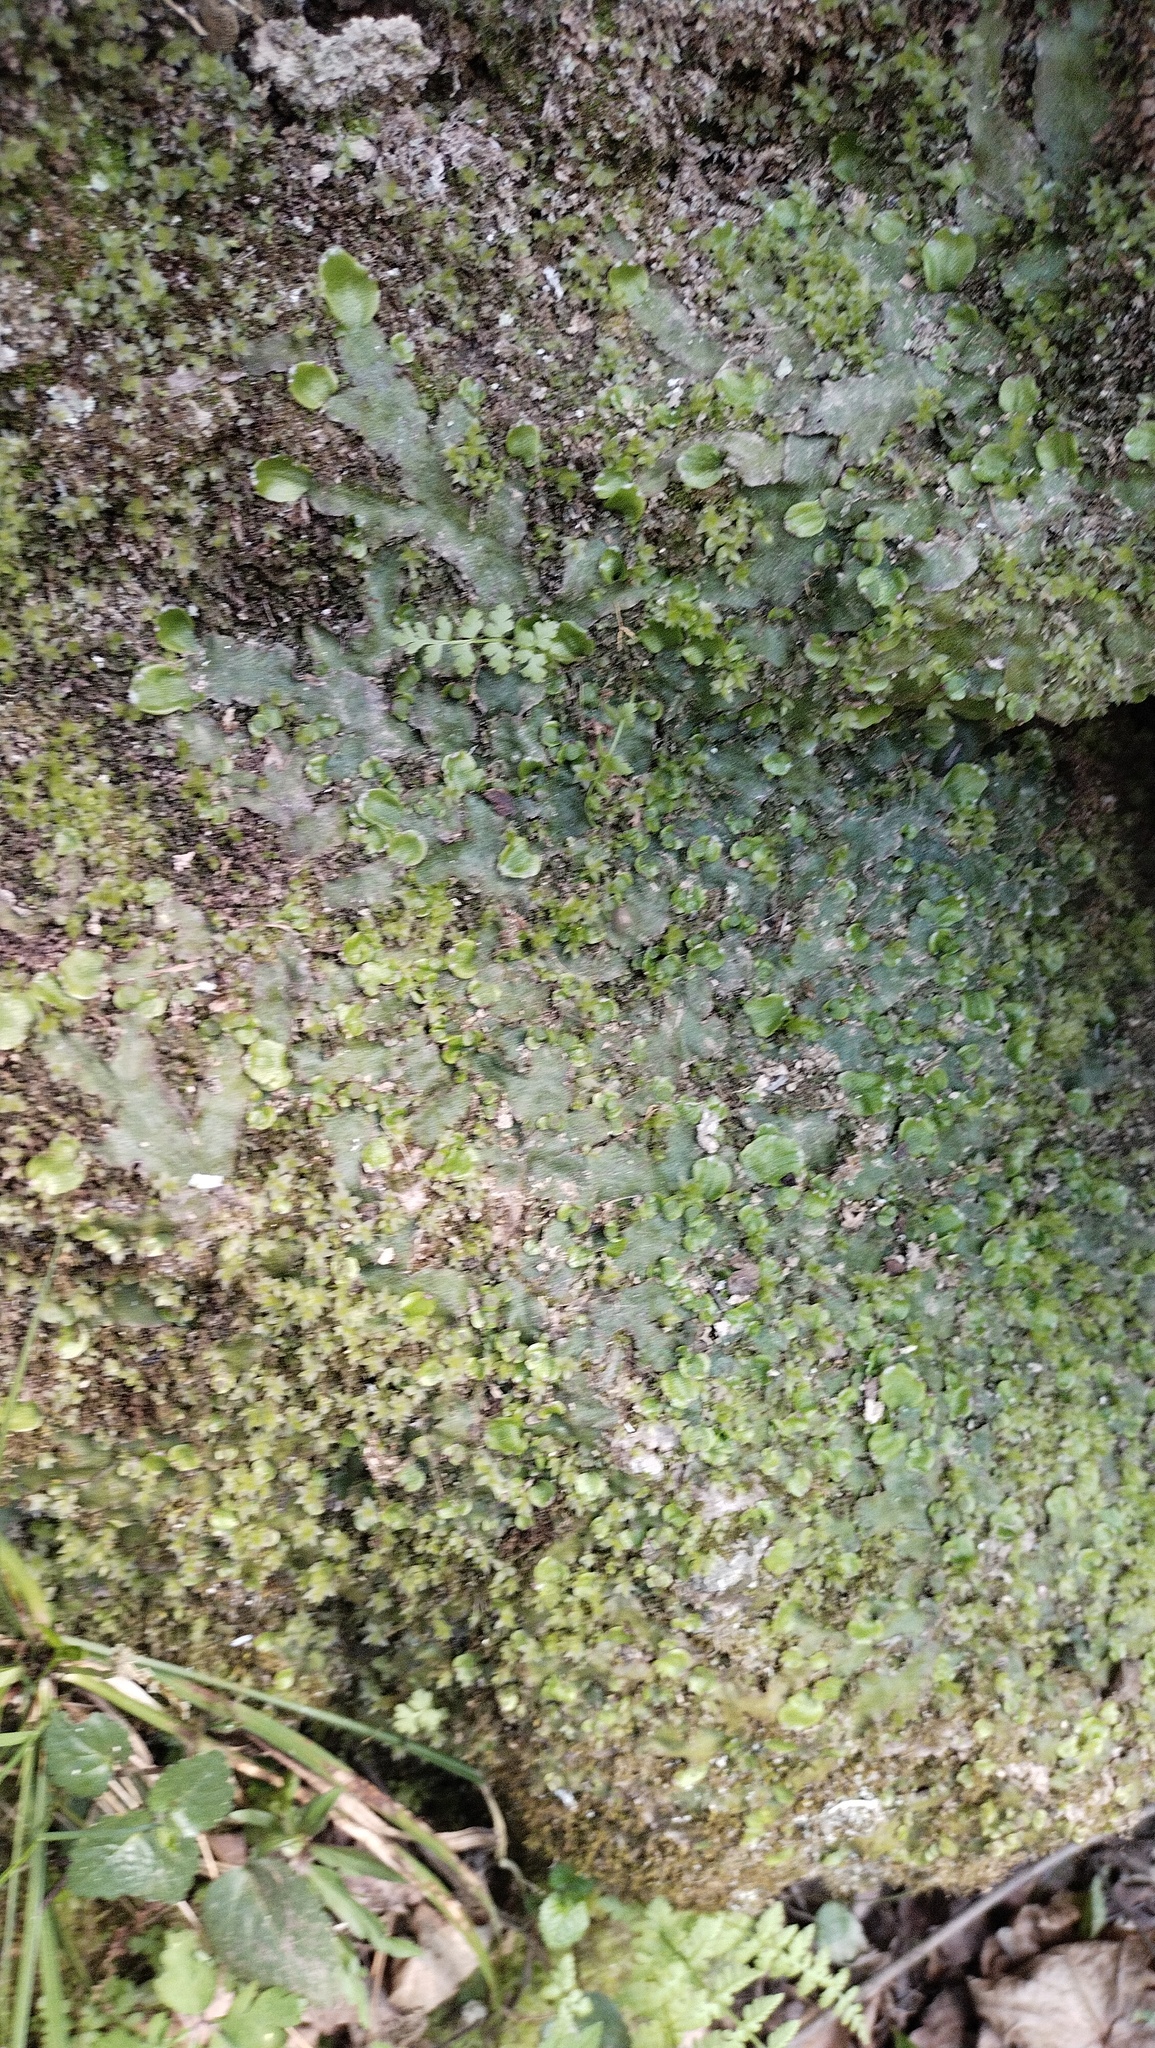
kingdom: Plantae
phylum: Marchantiophyta
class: Marchantiopsida
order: Marchantiales
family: Conocephalaceae
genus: Conocephalum
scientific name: Conocephalum salebrosum
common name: Cat-tongue liverwort
